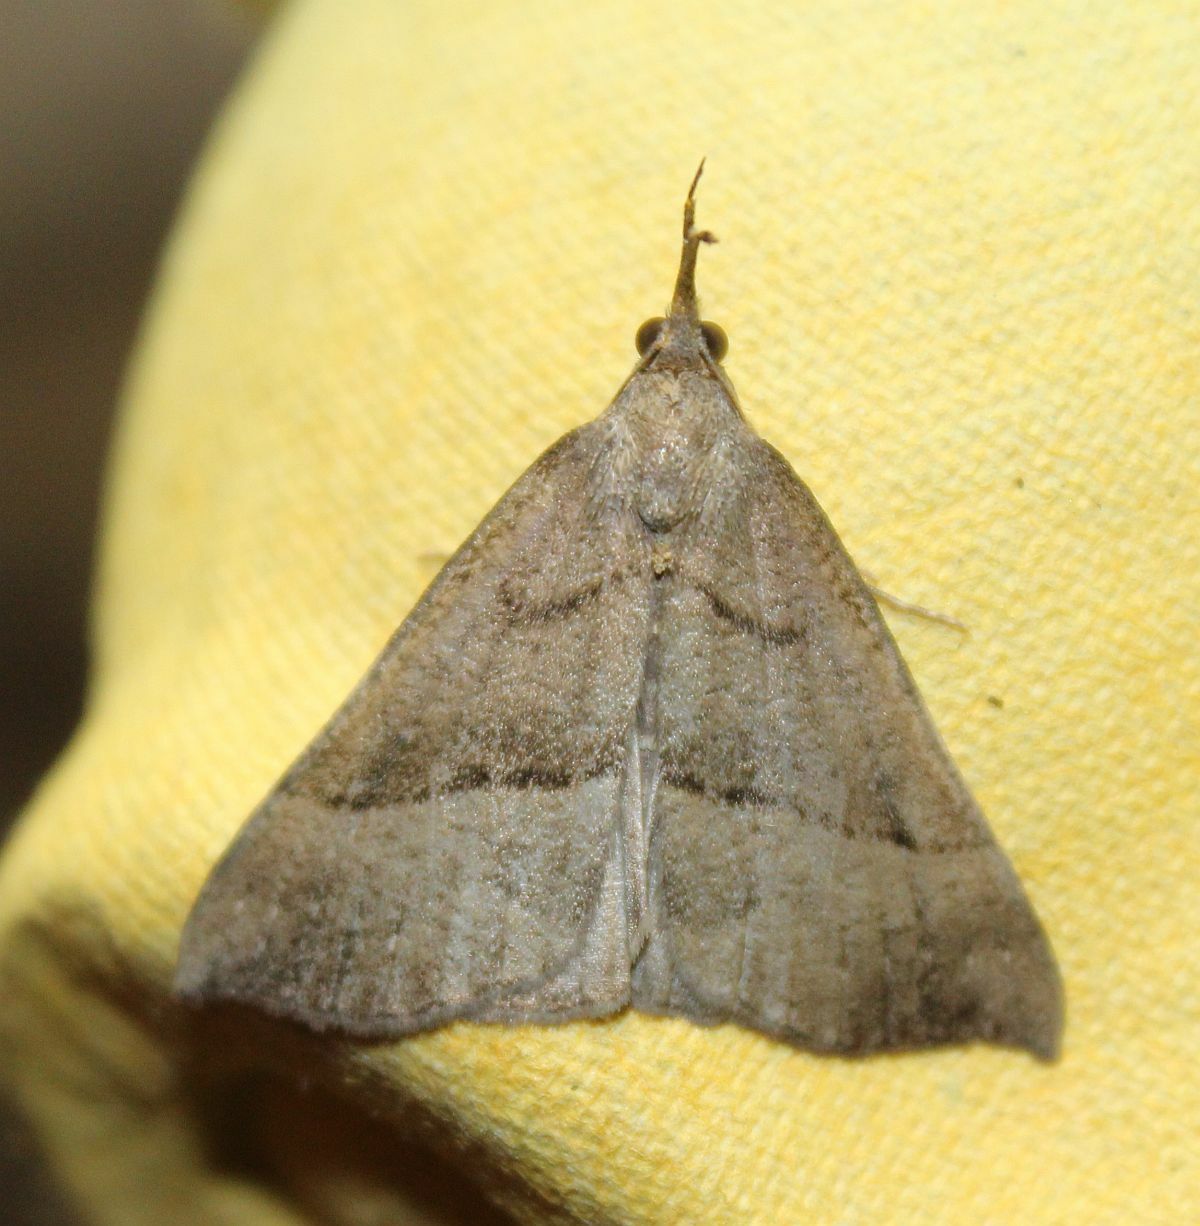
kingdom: Animalia
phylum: Arthropoda
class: Insecta
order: Lepidoptera
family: Erebidae
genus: Hypena
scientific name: Hypena proboscidalis
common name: Snout
